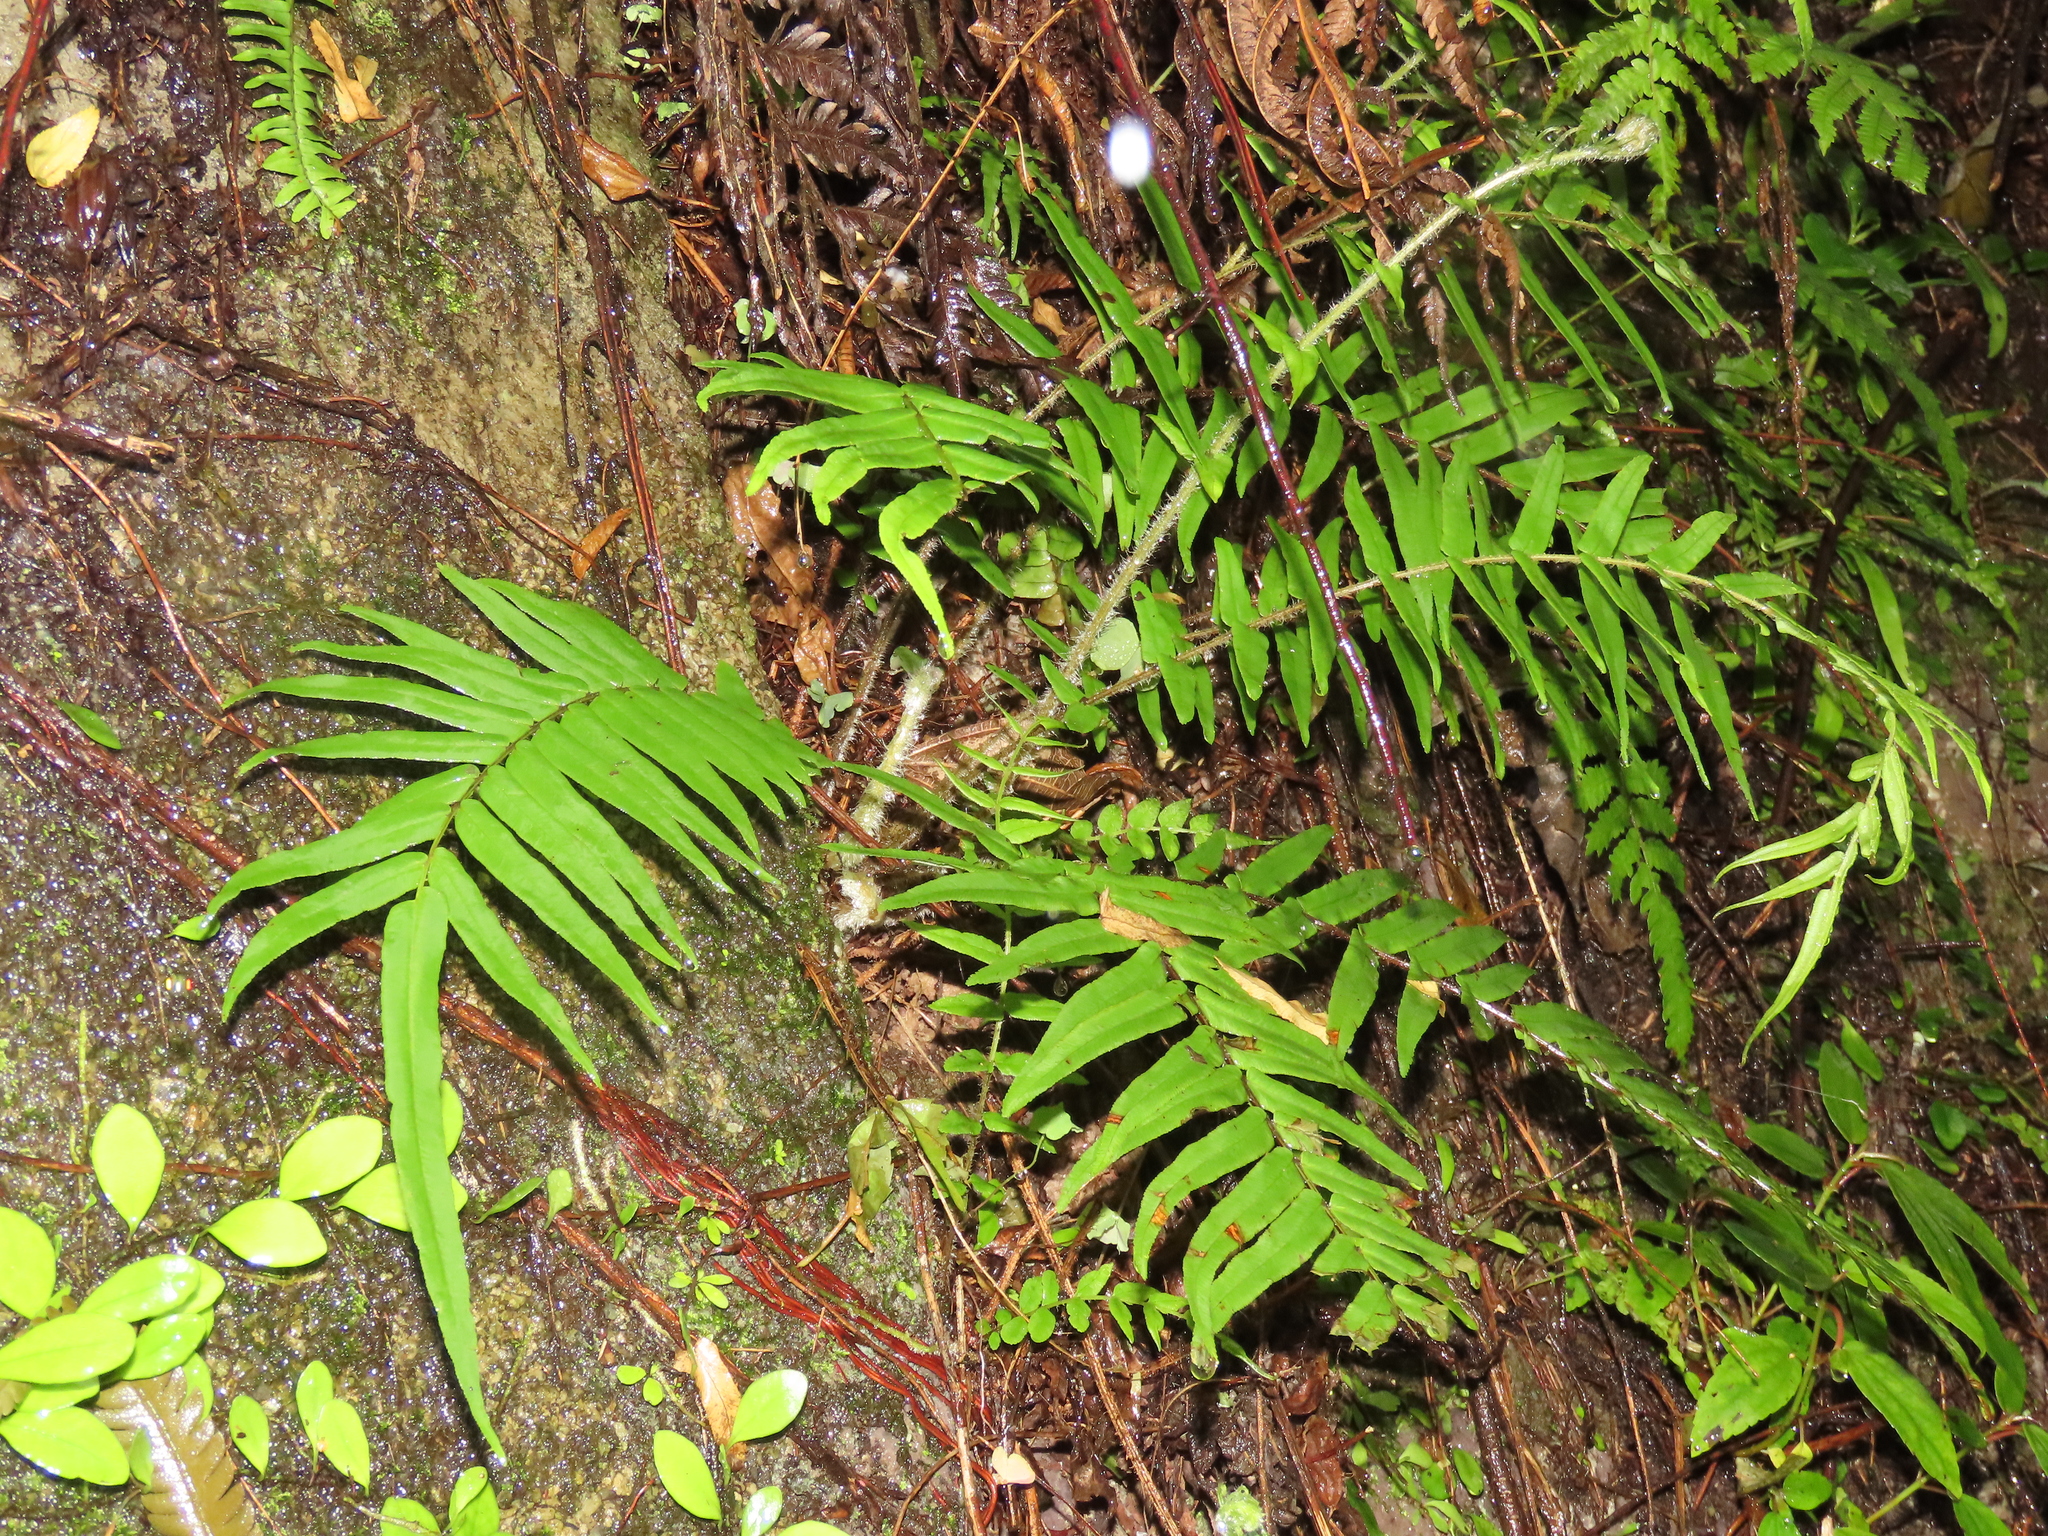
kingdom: Plantae
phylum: Tracheophyta
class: Polypodiopsida
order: Polypodiales
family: Pteridaceae
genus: Pteris
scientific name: Pteris vittata
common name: Ladder brake
